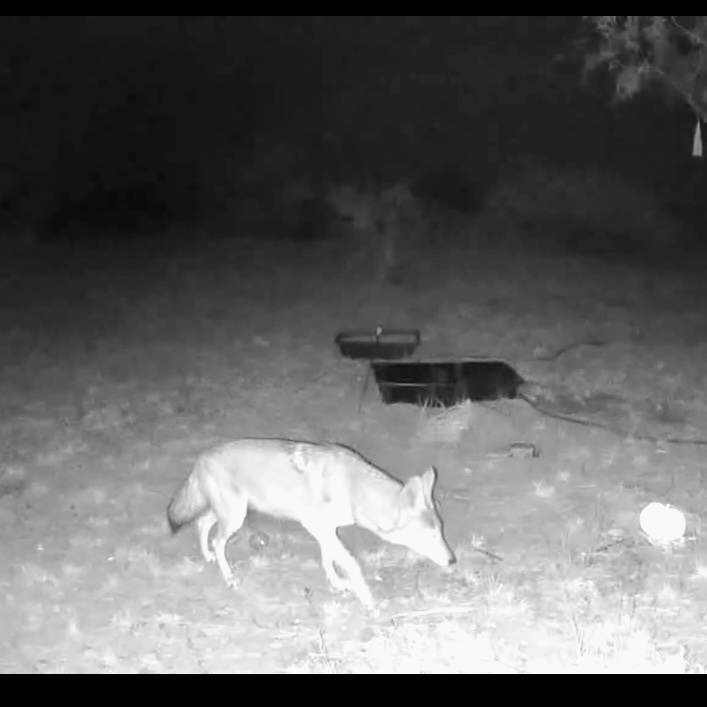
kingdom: Animalia
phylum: Chordata
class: Mammalia
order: Carnivora
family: Canidae
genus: Canis
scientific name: Canis latrans
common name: Coyote
